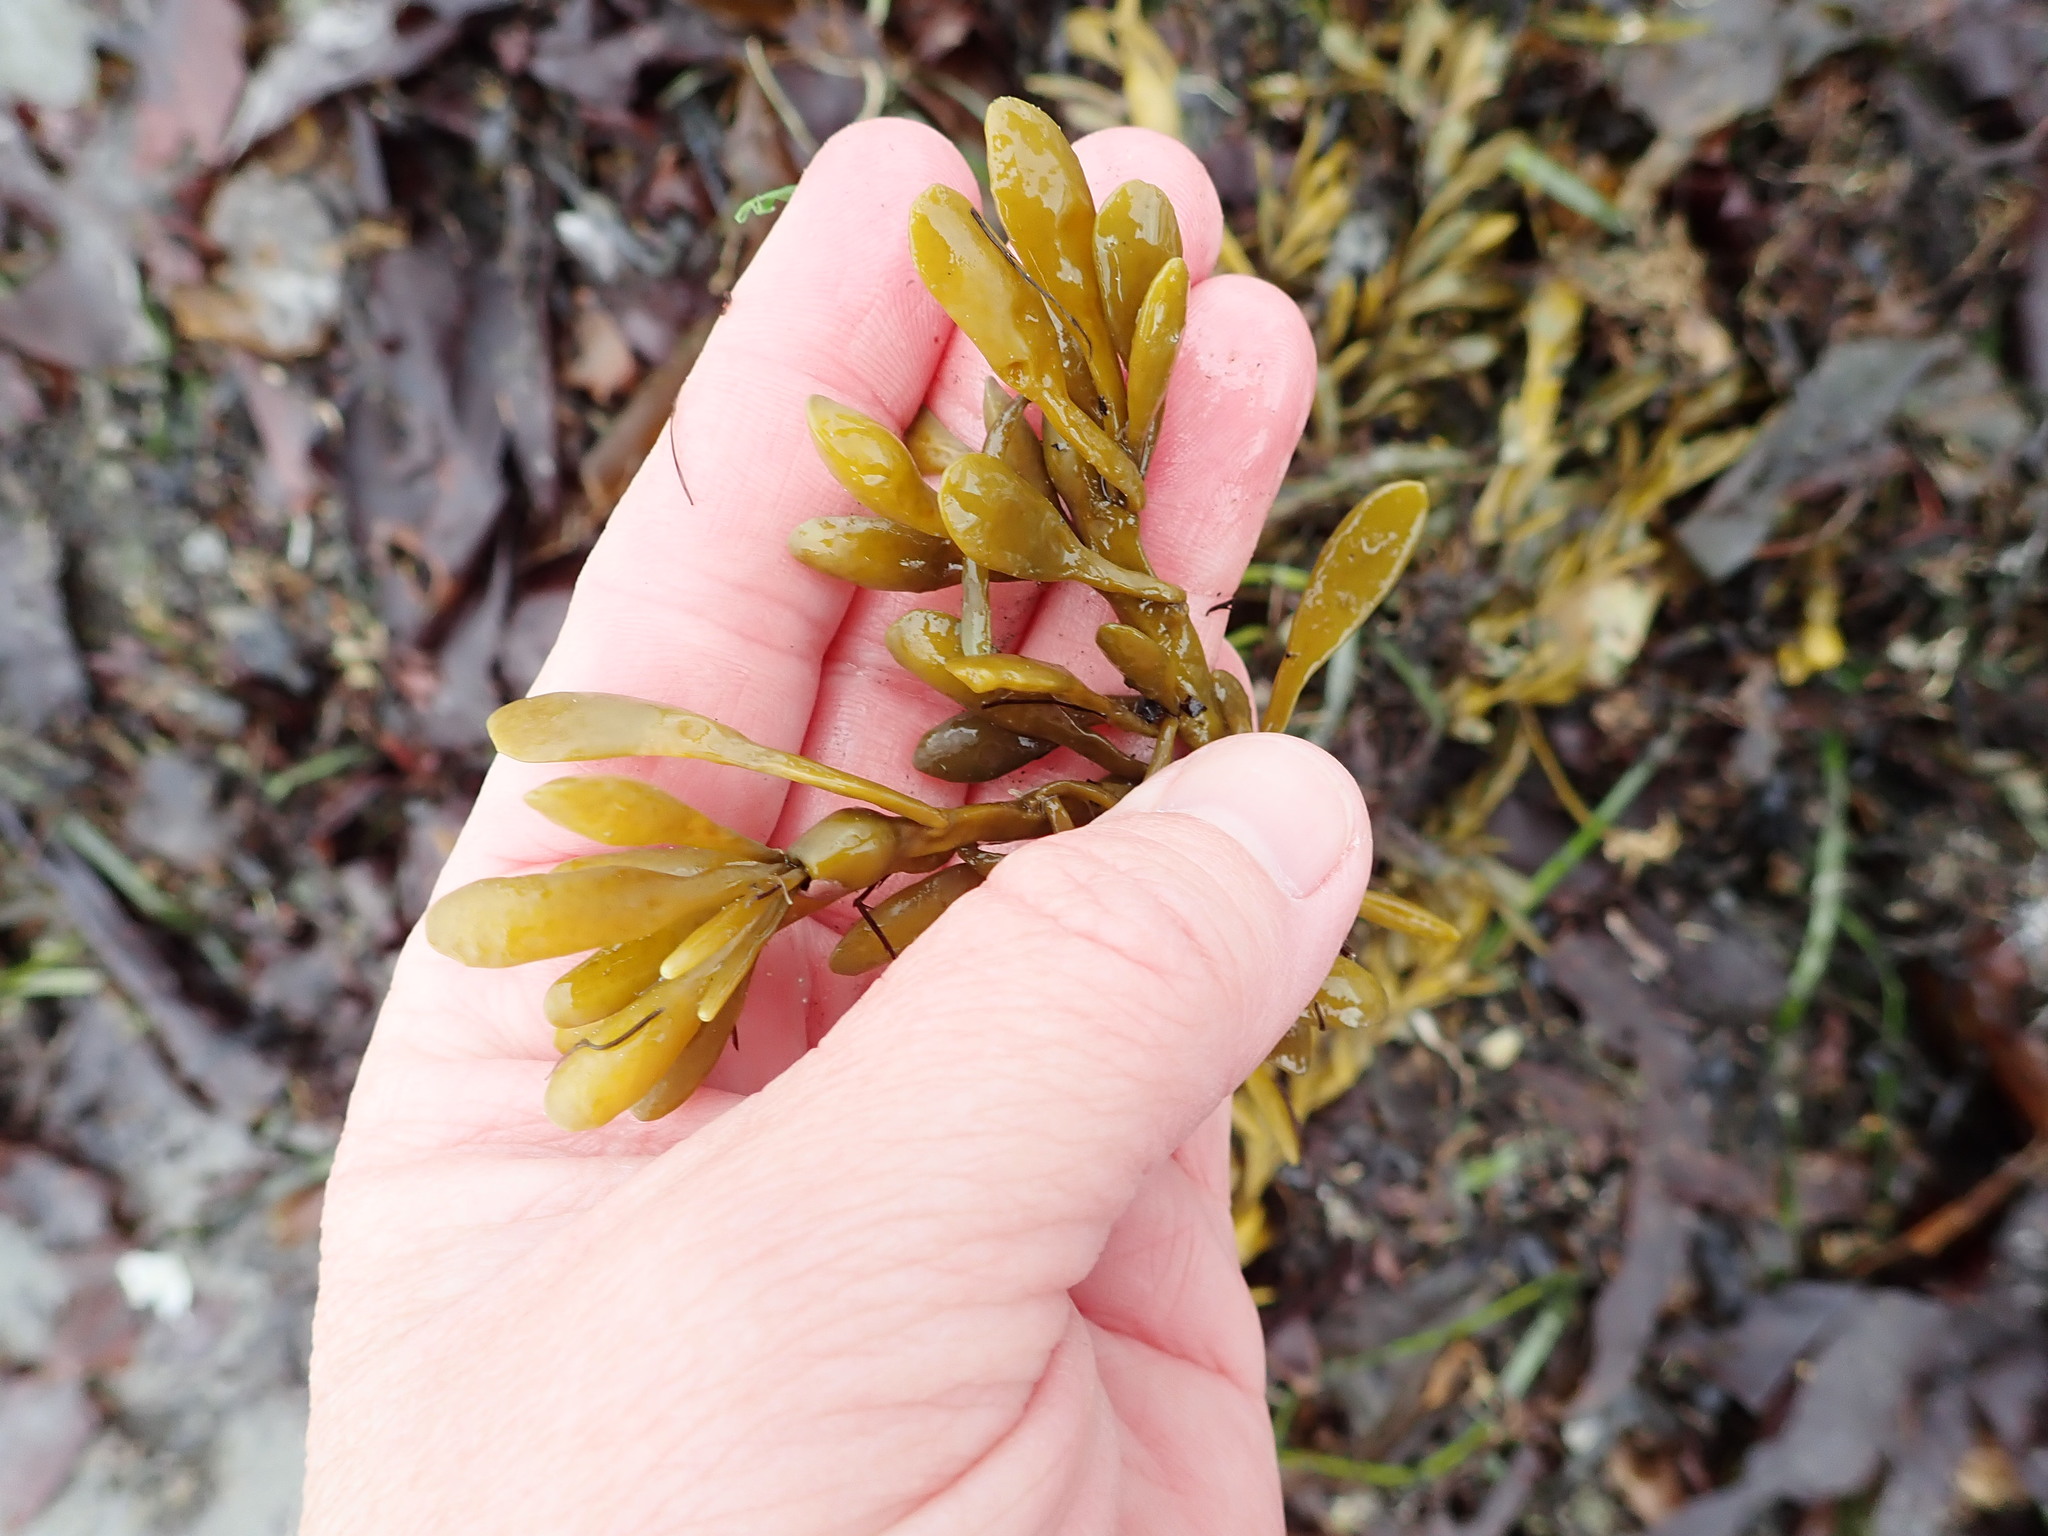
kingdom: Chromista
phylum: Ochrophyta
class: Phaeophyceae
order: Fucales
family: Fucaceae
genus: Ascophyllum
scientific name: Ascophyllum nodosum
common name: Knotted wrack
